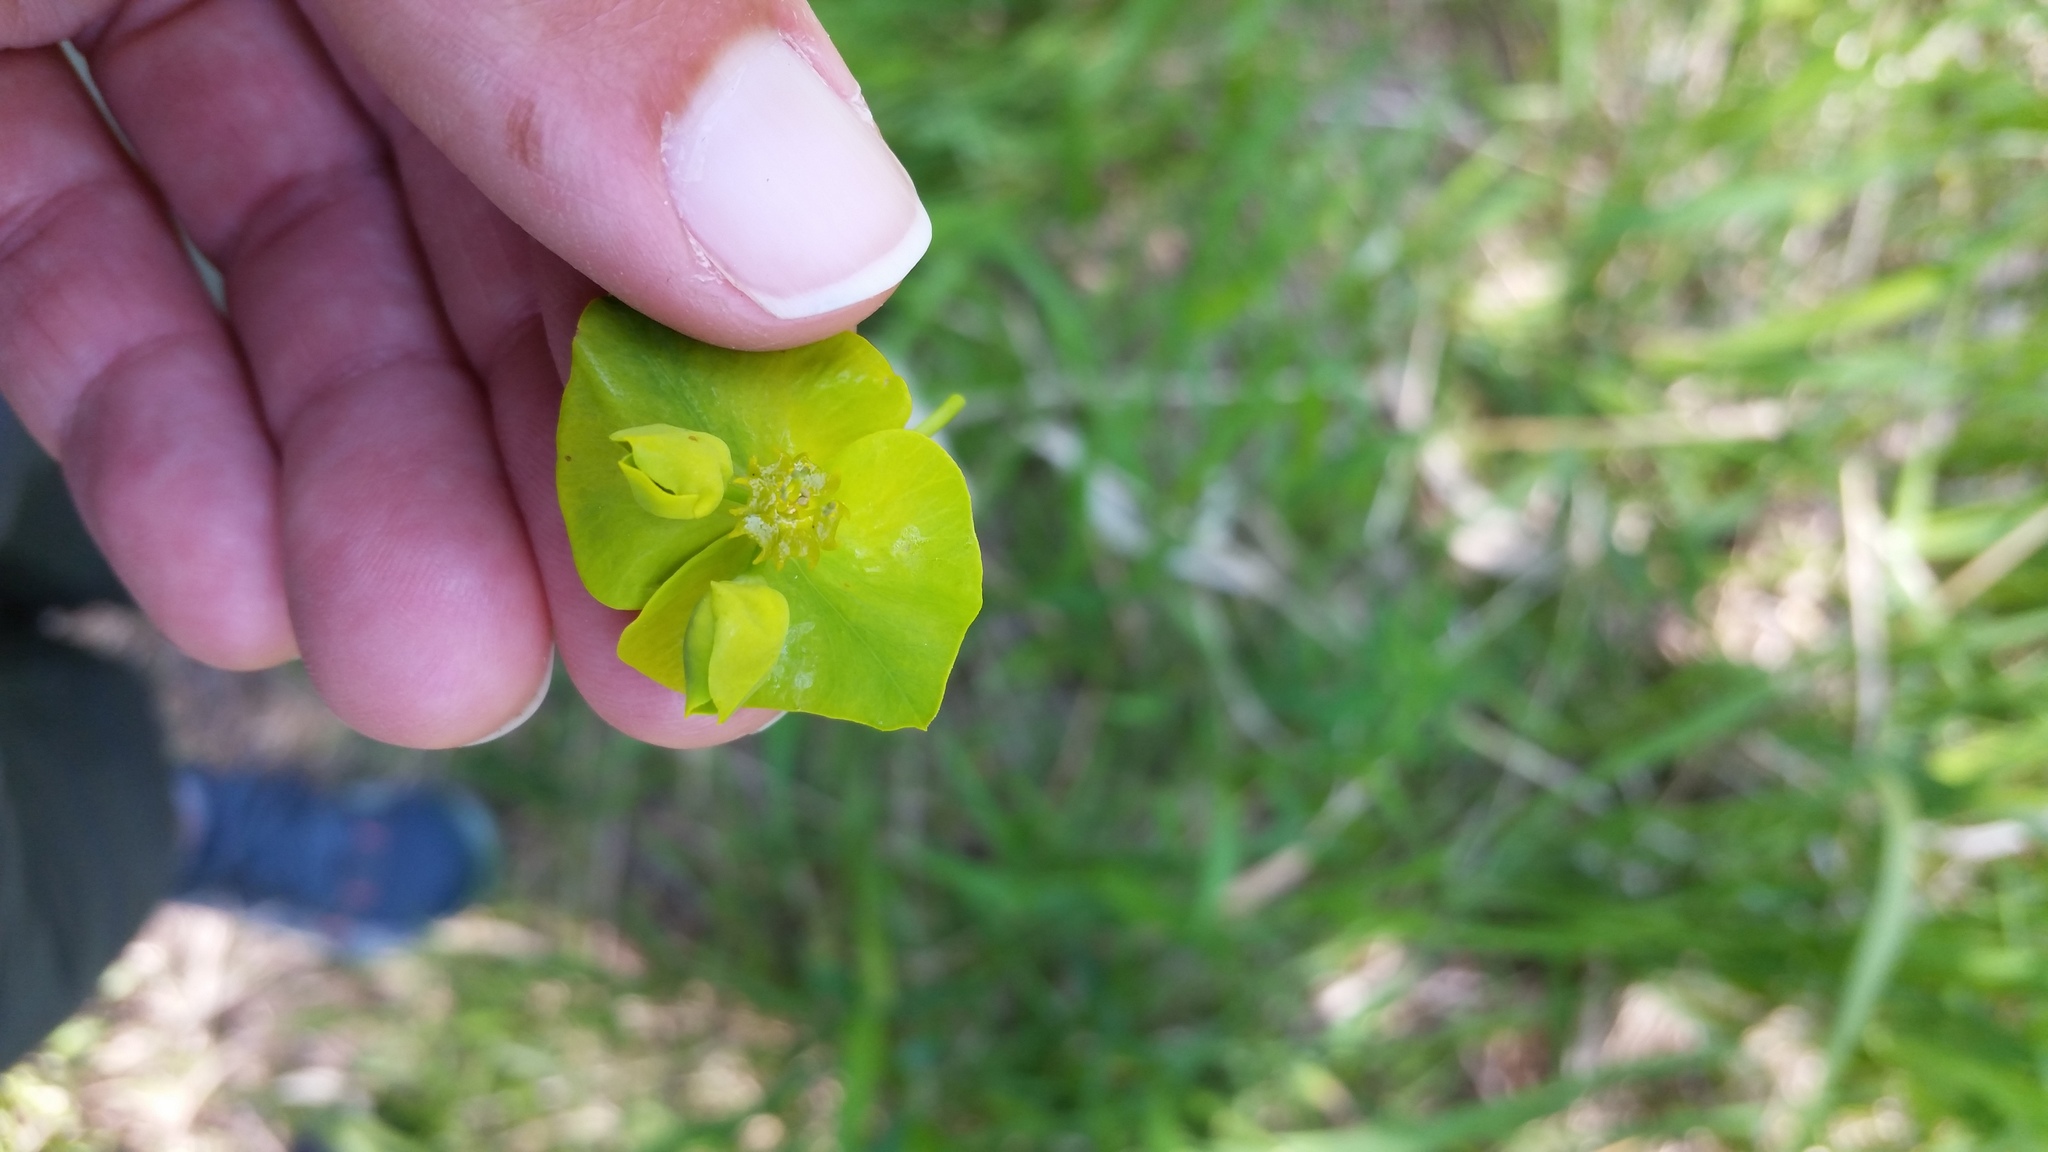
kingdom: Plantae
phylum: Tracheophyta
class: Magnoliopsida
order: Malpighiales
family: Euphorbiaceae
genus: Euphorbia
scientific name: Euphorbia virgata
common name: Leafy spurge
